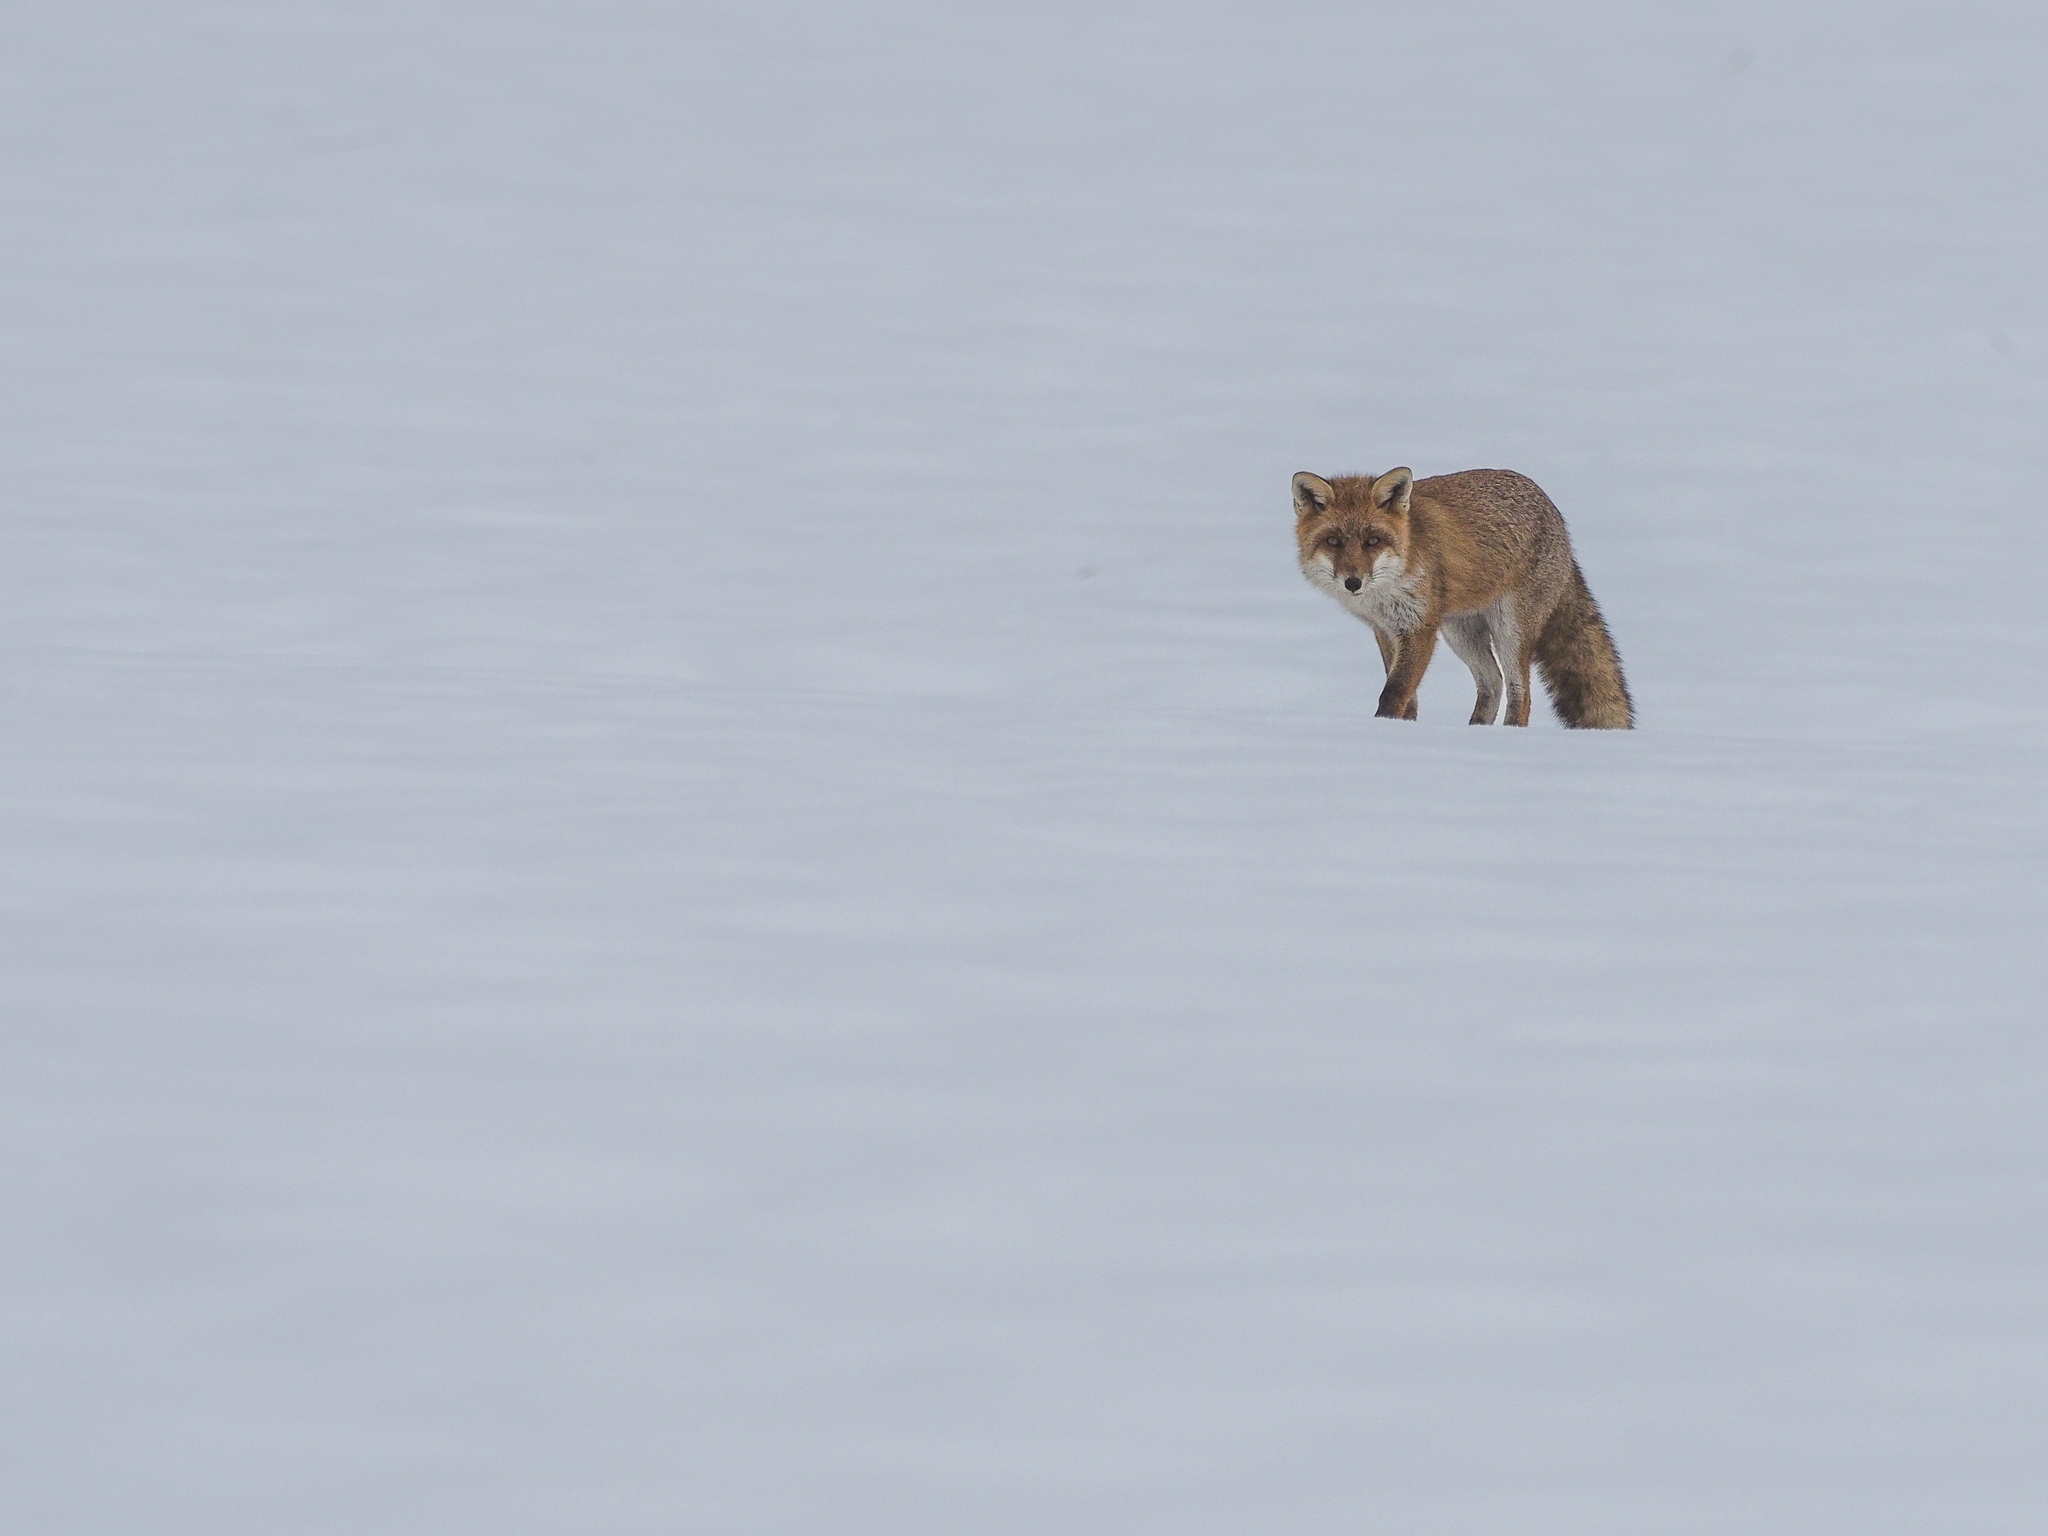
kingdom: Animalia
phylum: Chordata
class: Mammalia
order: Carnivora
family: Canidae
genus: Vulpes
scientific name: Vulpes vulpes
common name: Red fox
